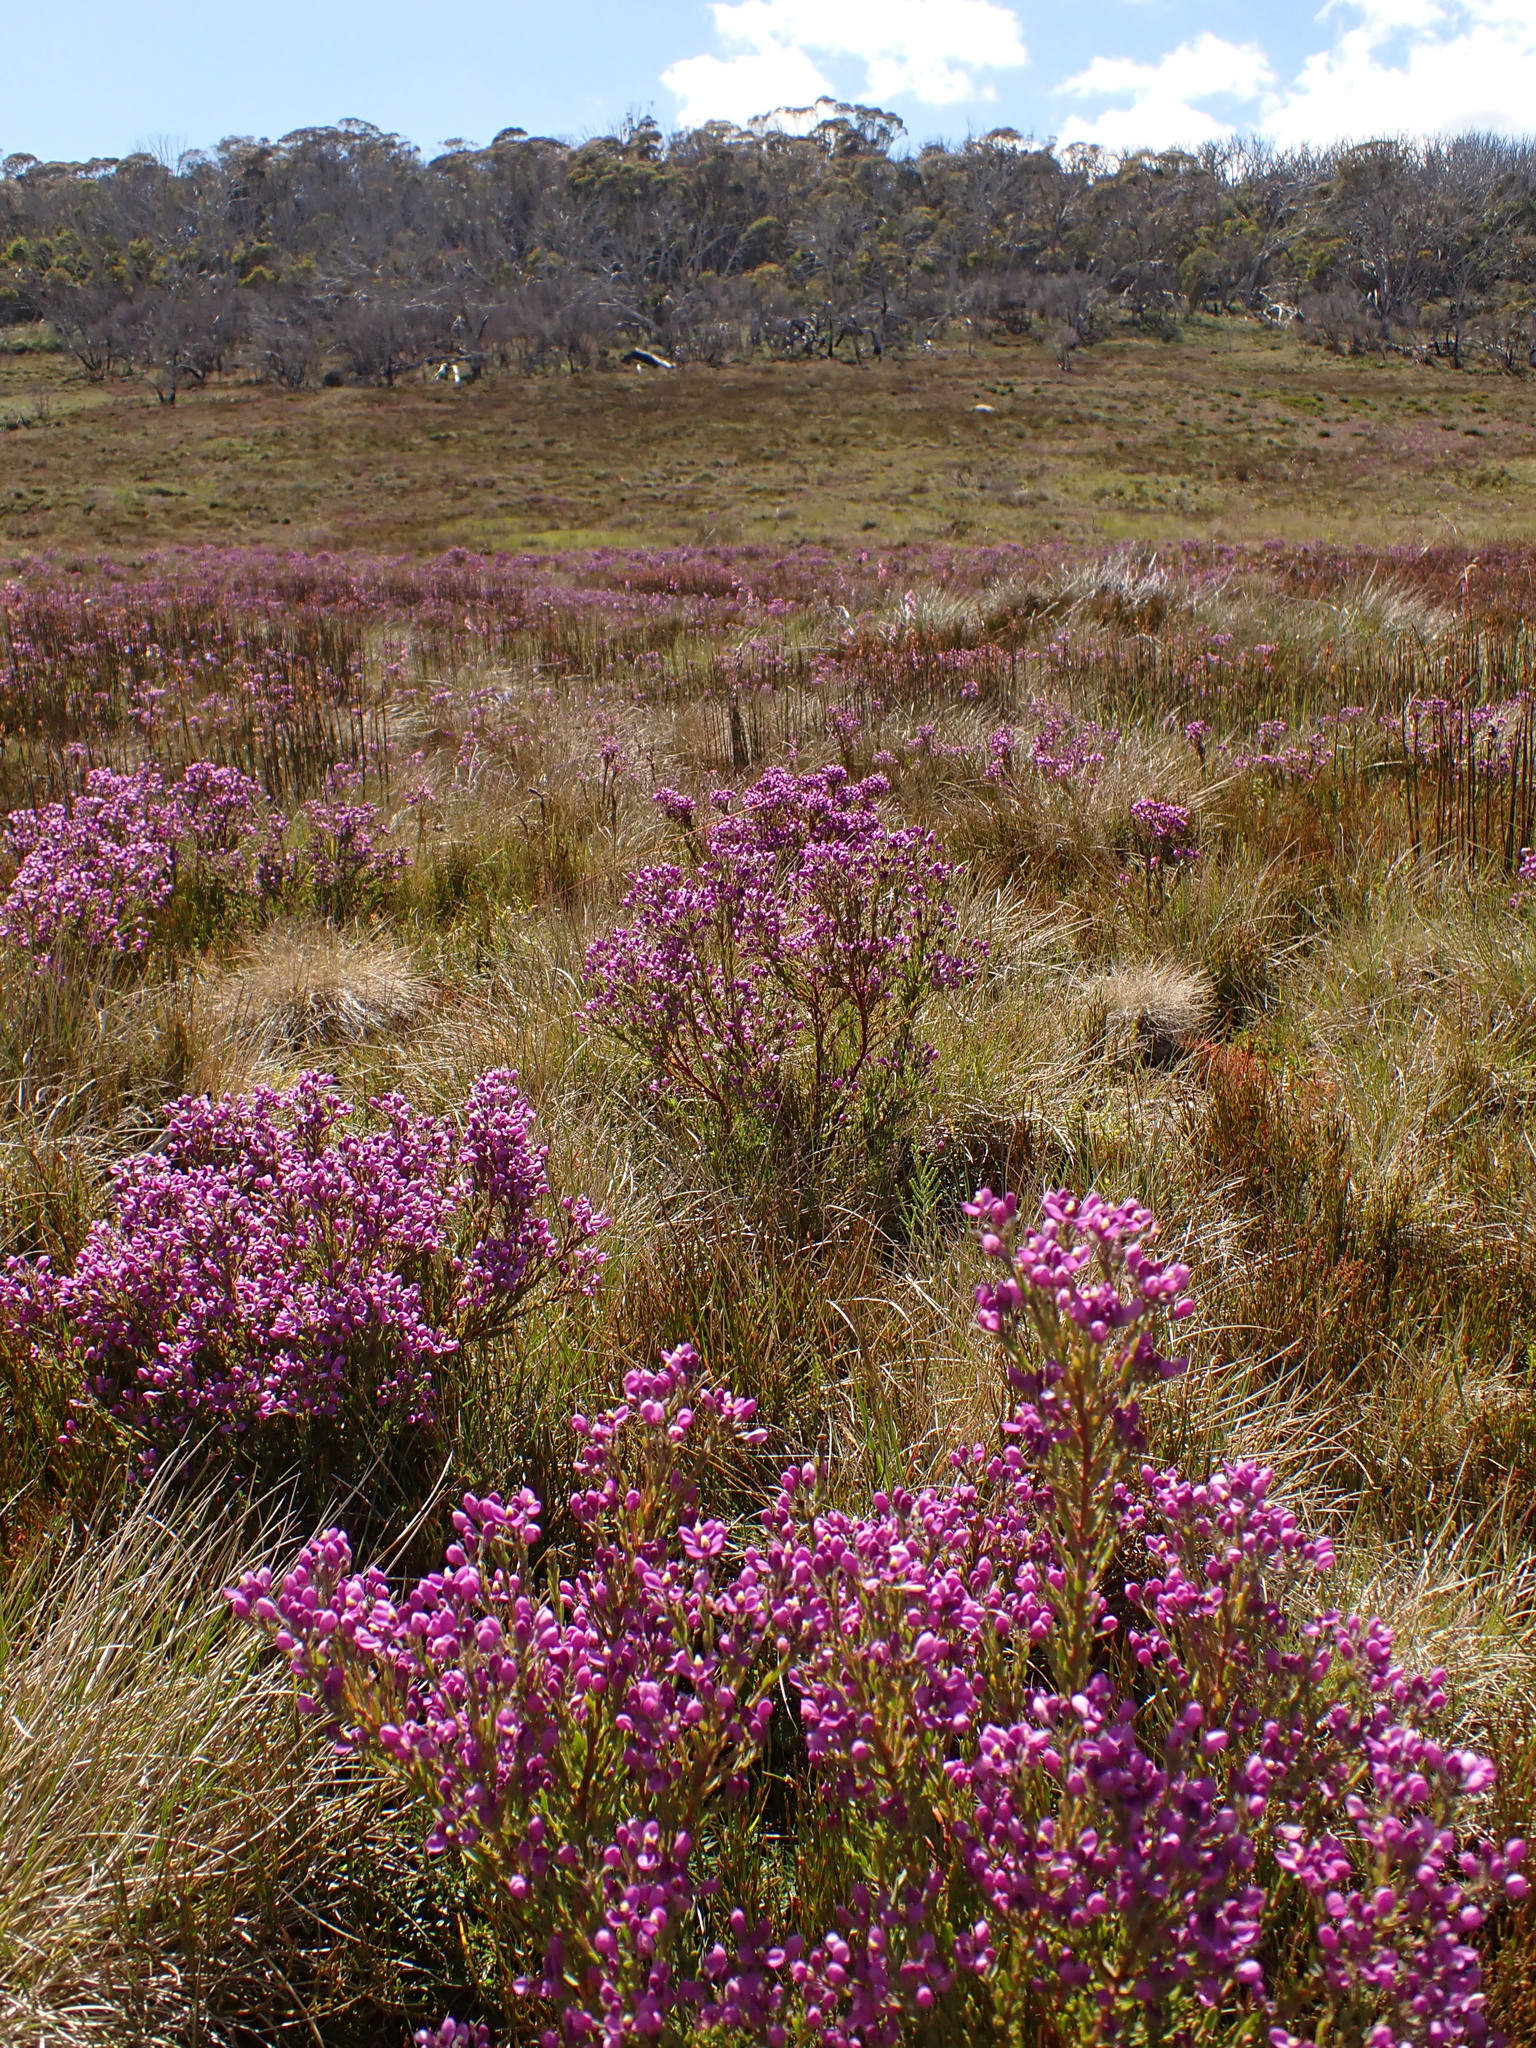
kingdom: Plantae
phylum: Tracheophyta
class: Magnoliopsida
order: Fabales
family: Polygalaceae
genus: Comesperma
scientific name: Comesperma retusum
